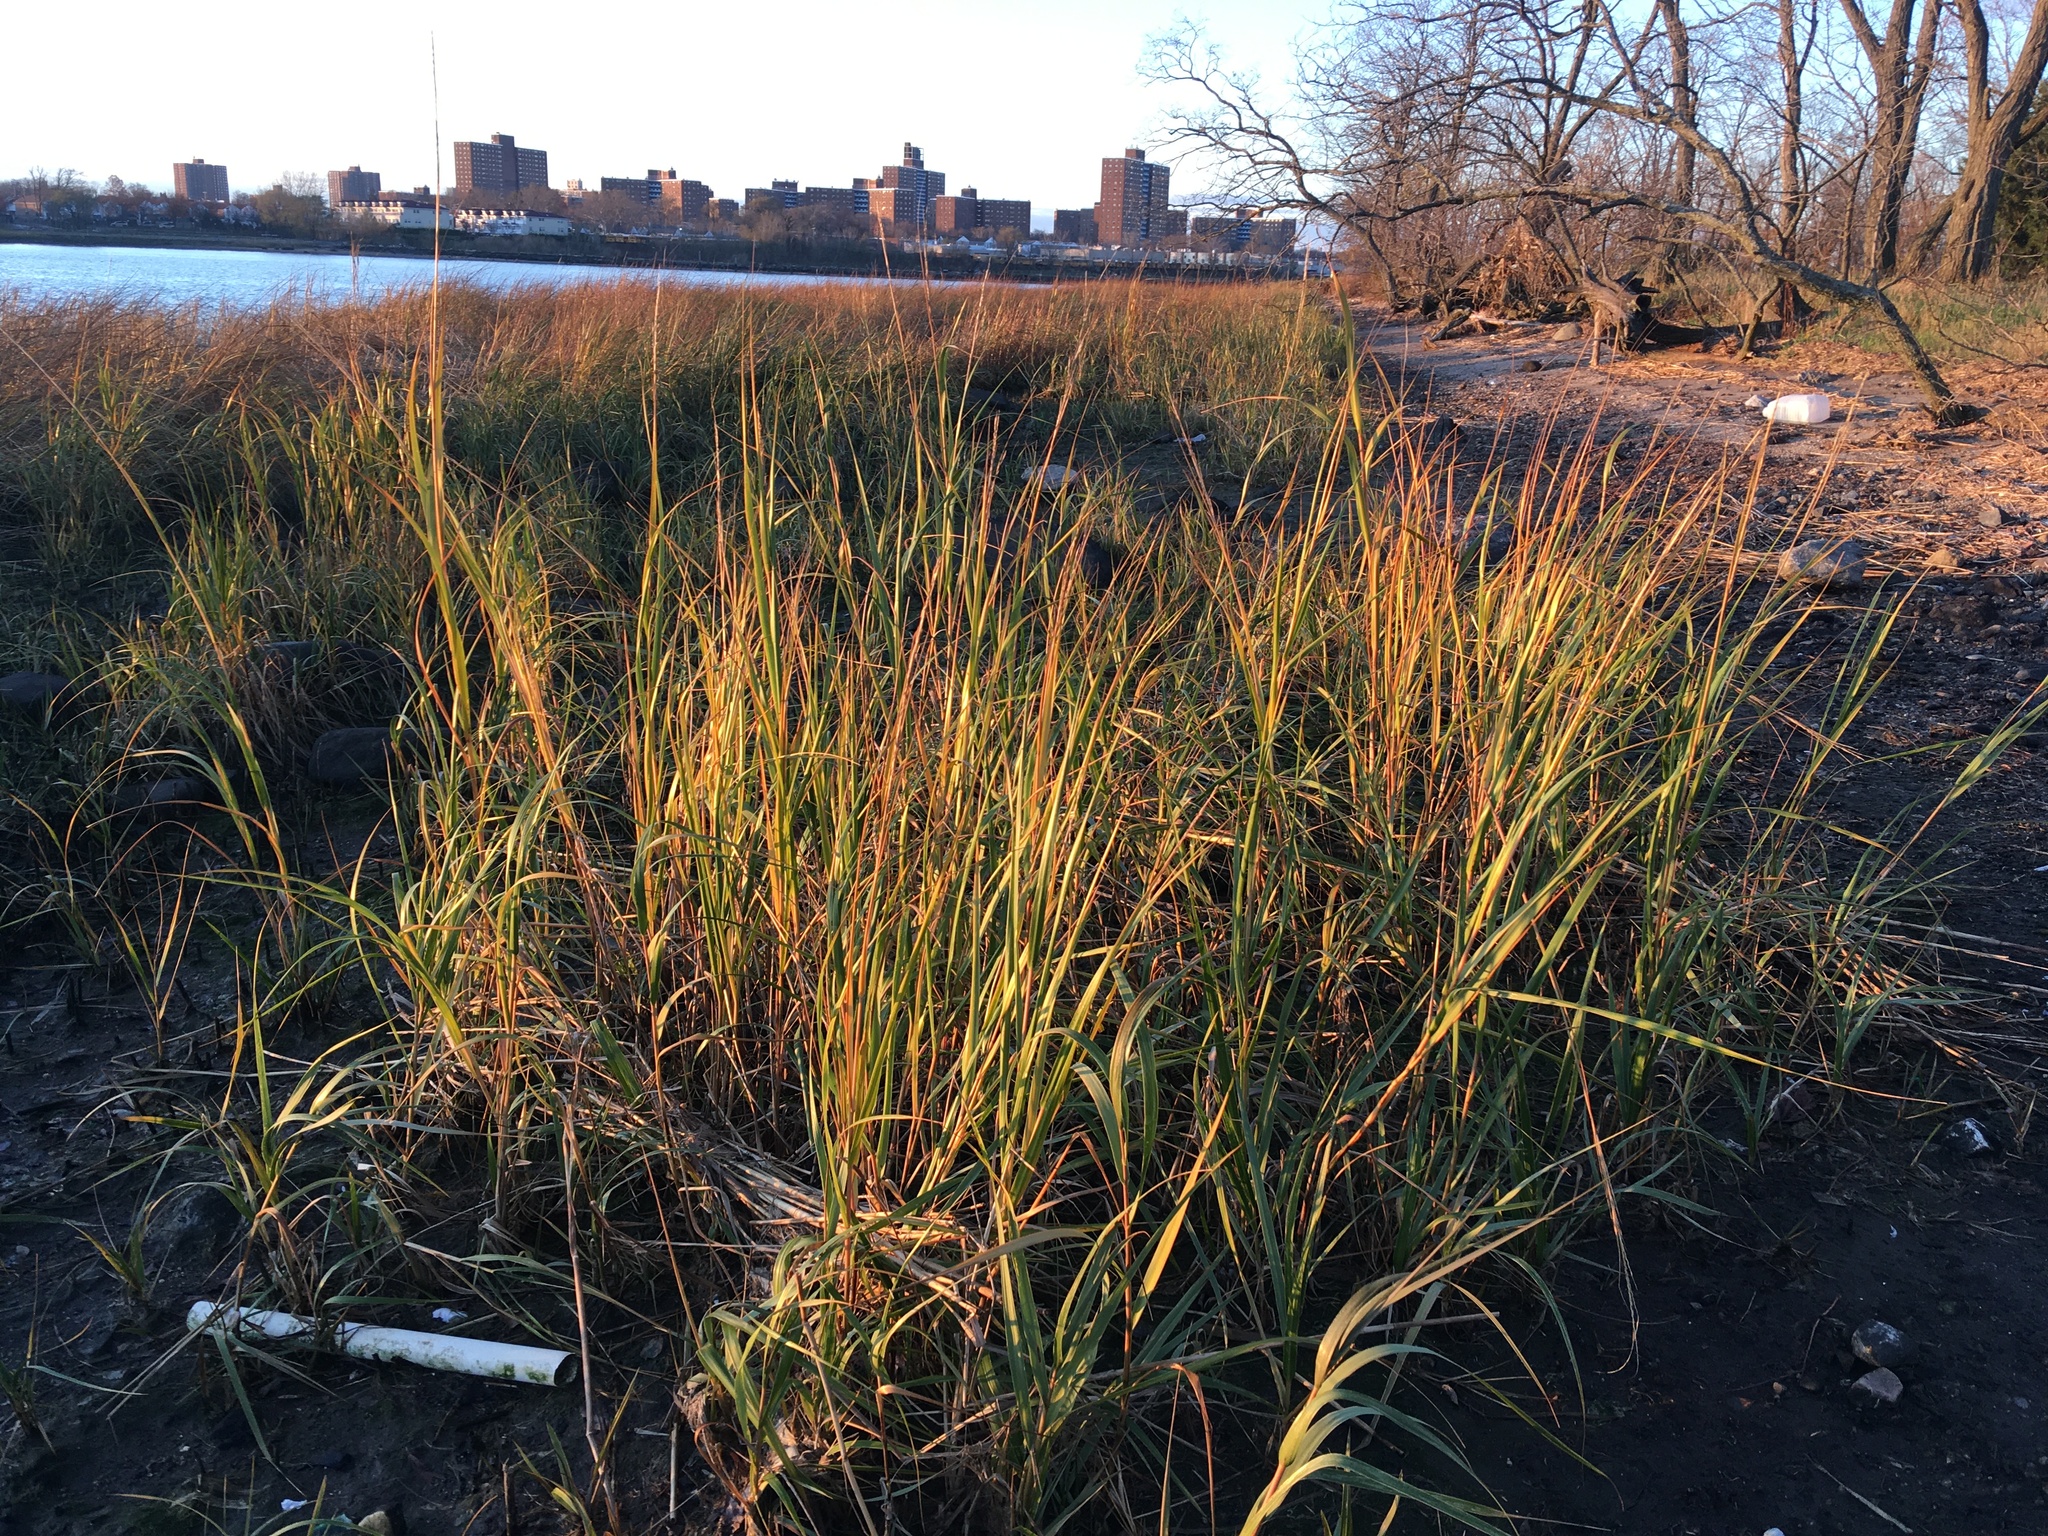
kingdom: Plantae
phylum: Tracheophyta
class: Liliopsida
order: Poales
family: Poaceae
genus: Sporobolus
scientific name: Sporobolus alterniflorus
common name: Atlantic cordgrass
